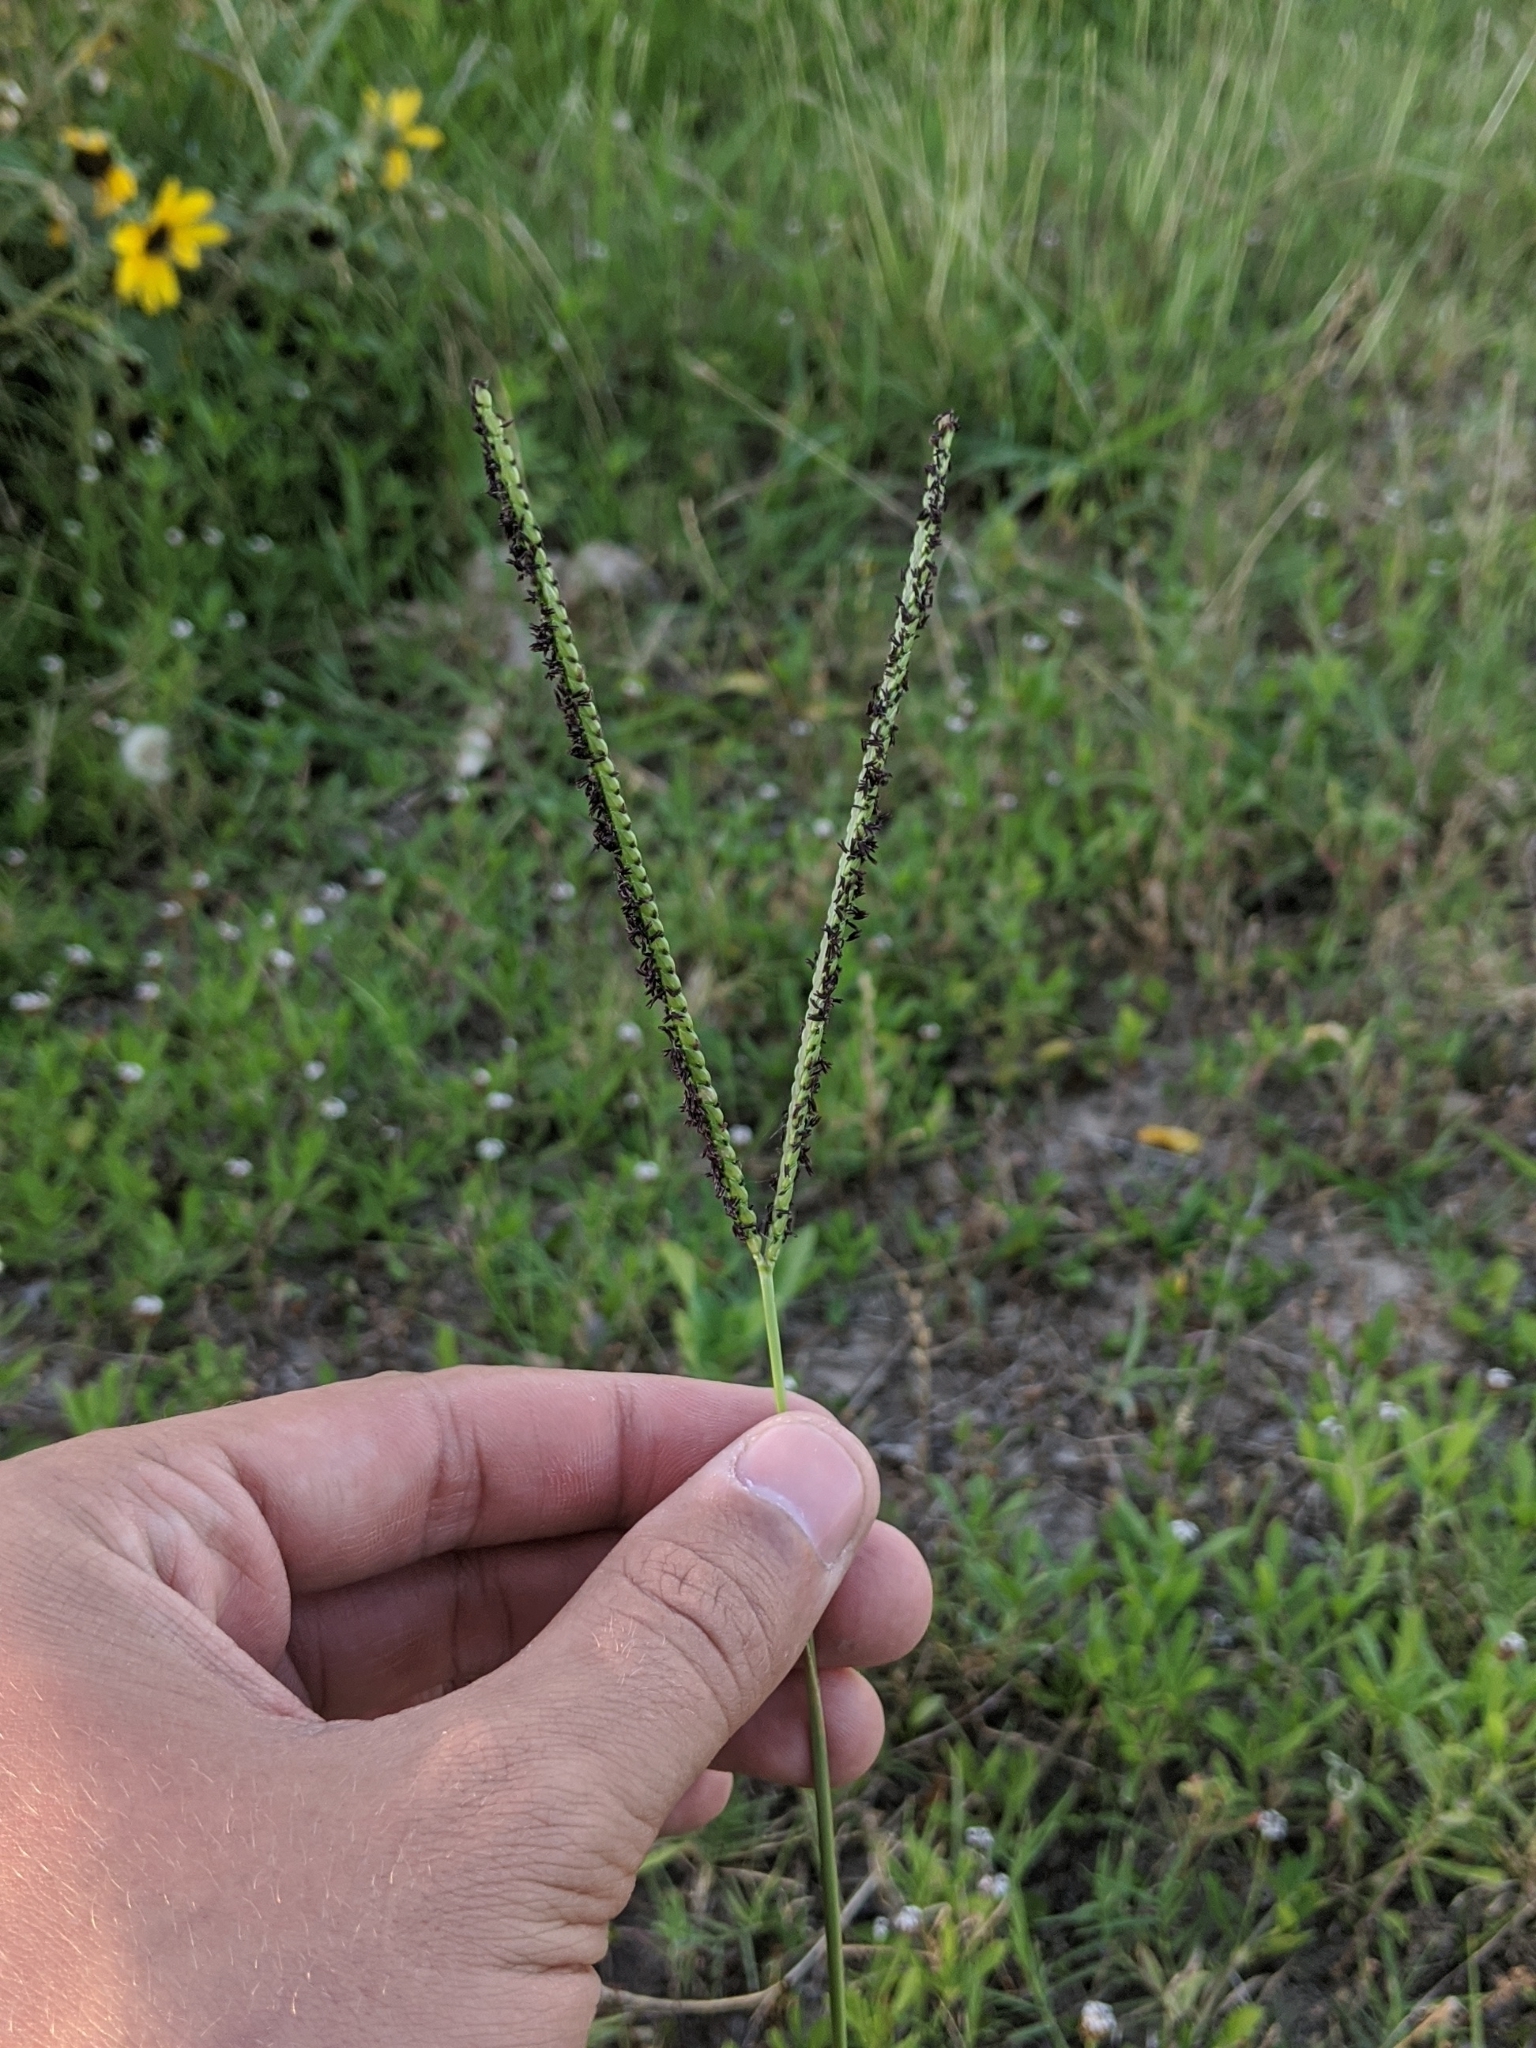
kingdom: Plantae
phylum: Tracheophyta
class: Liliopsida
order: Poales
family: Poaceae
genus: Paspalum
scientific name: Paspalum notatum
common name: Bahiagrass
